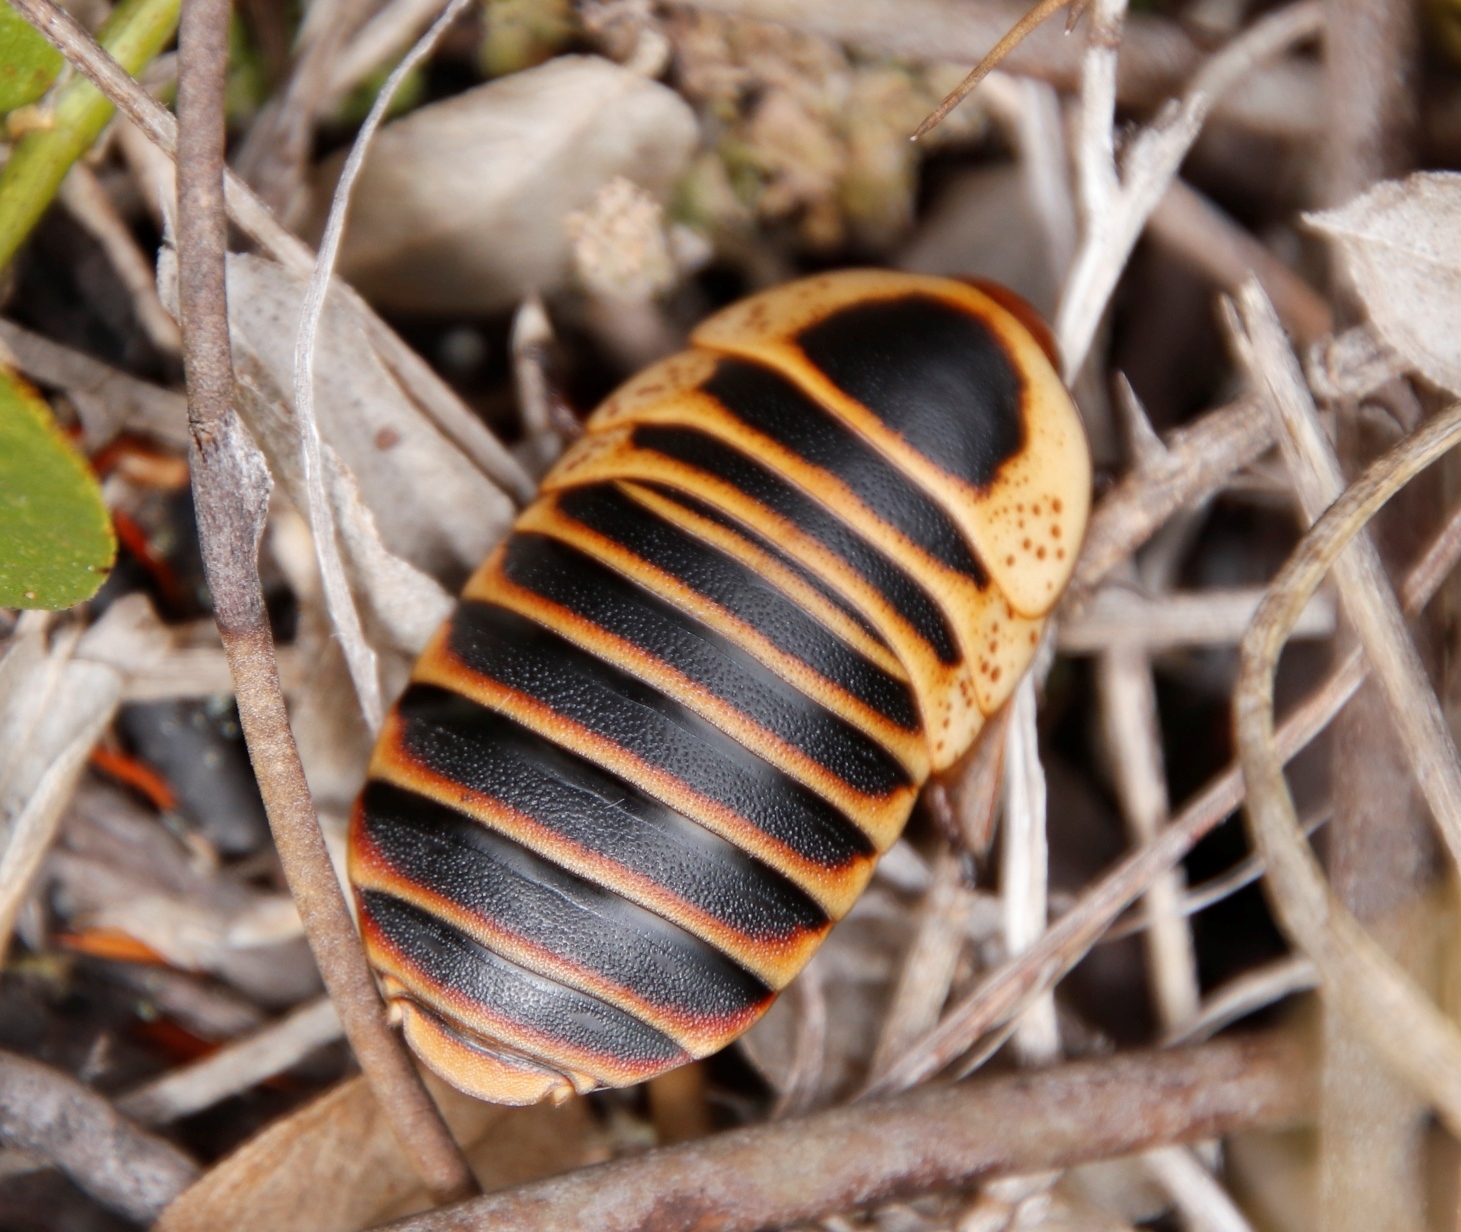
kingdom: Animalia
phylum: Arthropoda
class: Insecta
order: Blattodea
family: Blaberidae
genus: Aptera
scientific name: Aptera fusca
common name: Cape mountain cockroach
